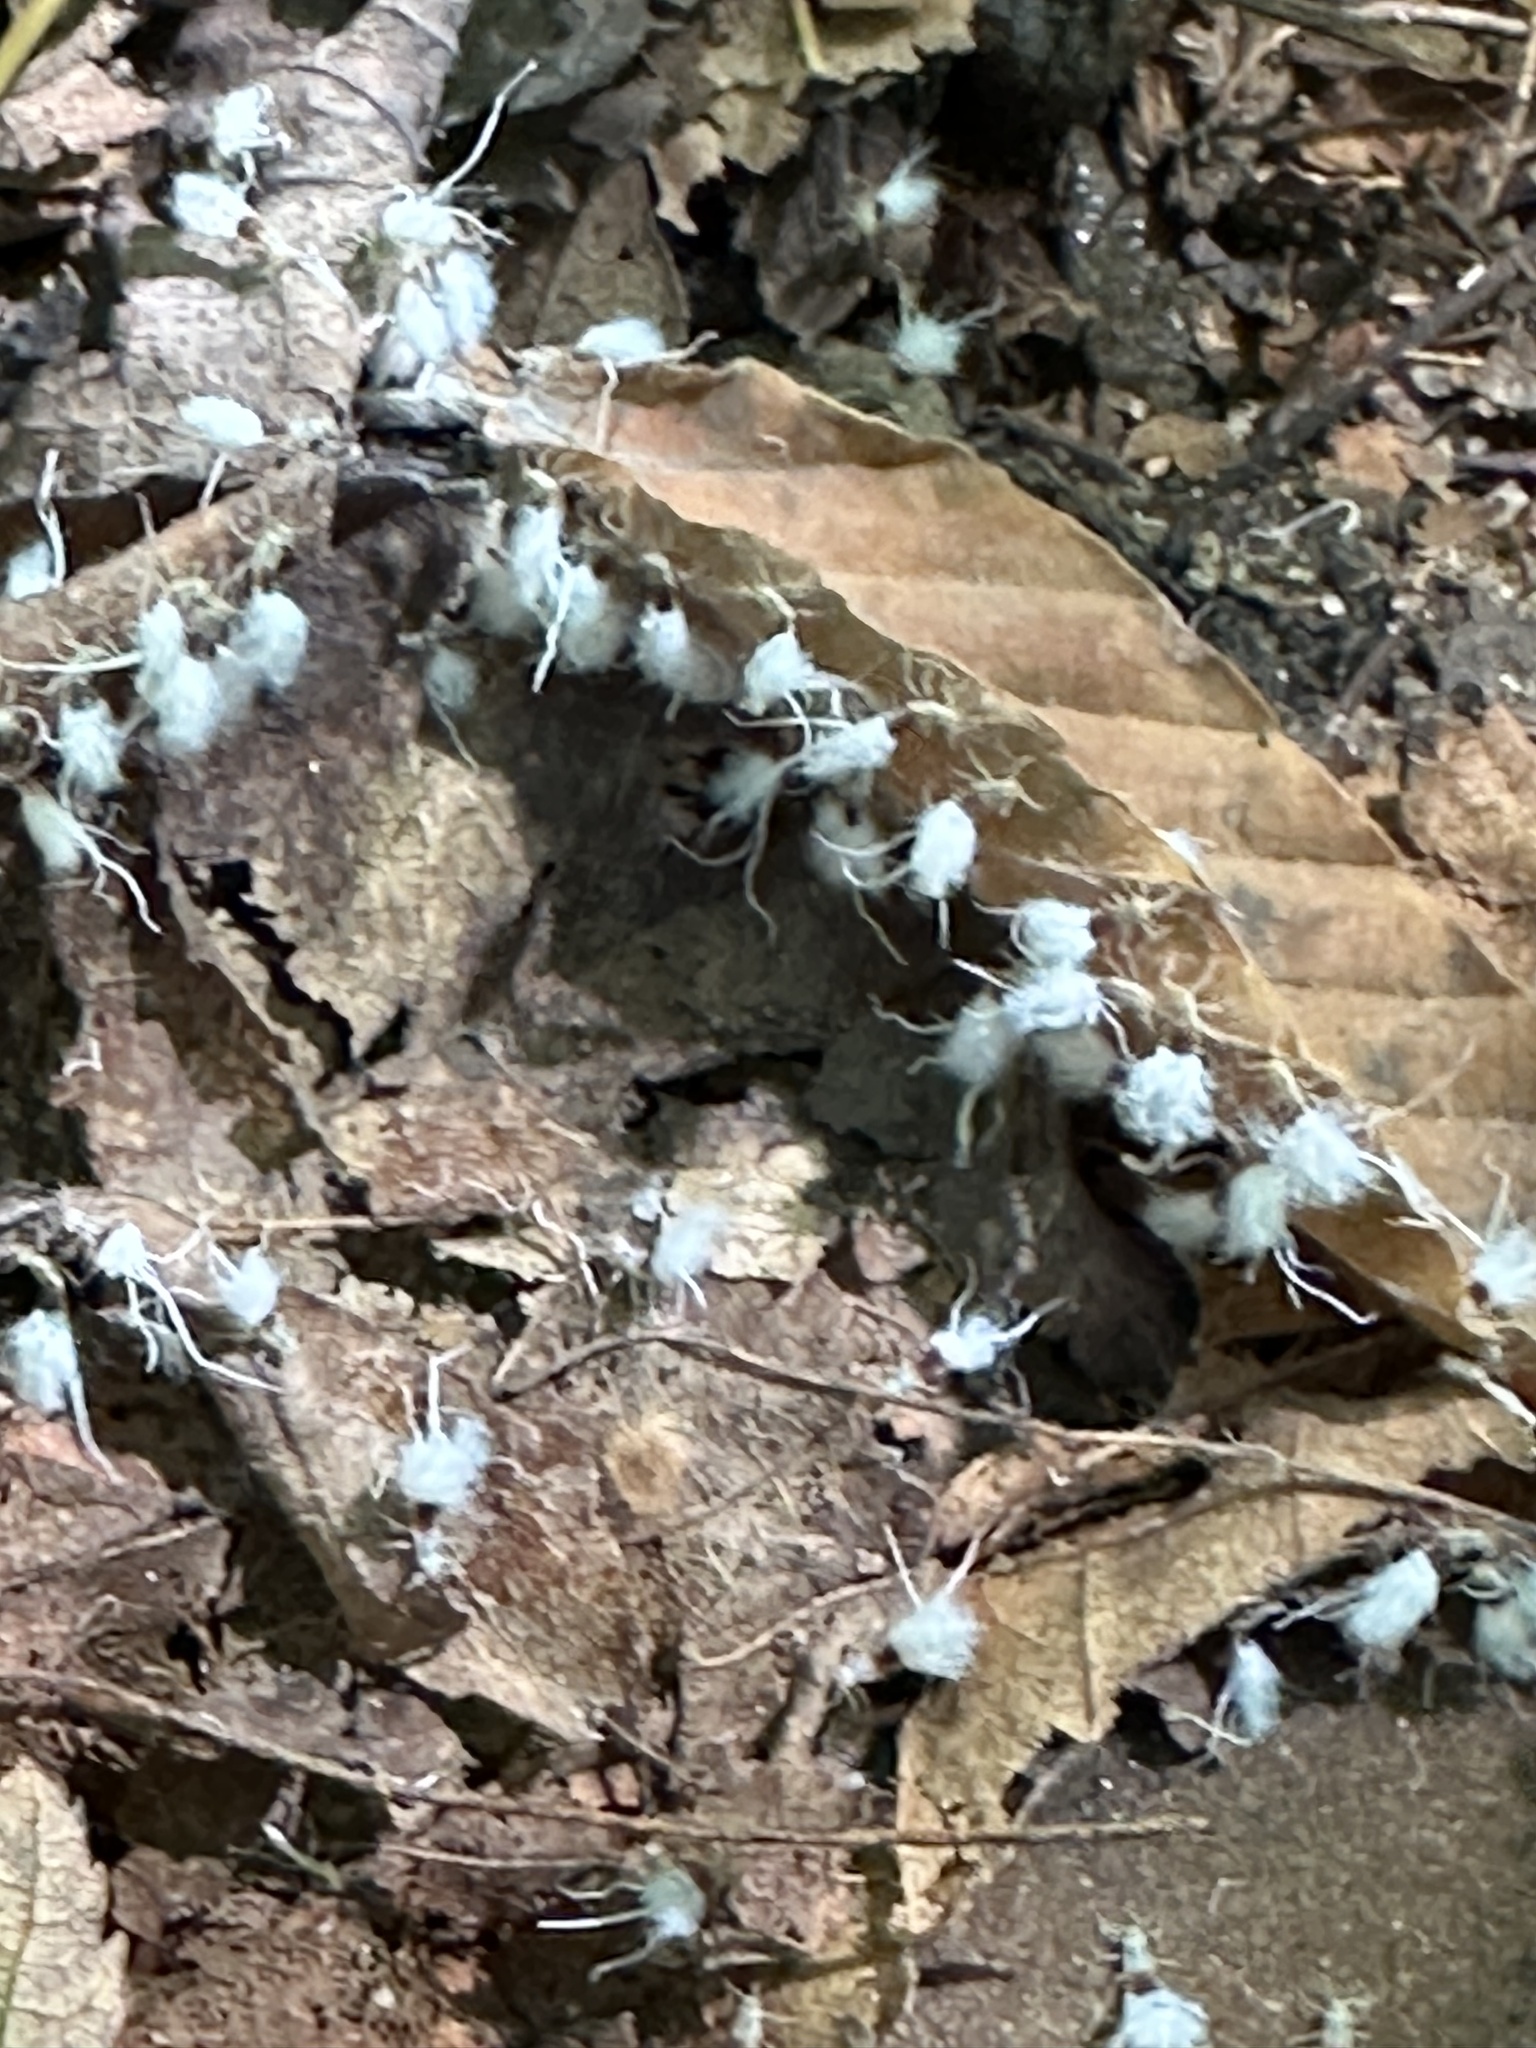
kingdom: Animalia
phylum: Arthropoda
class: Insecta
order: Hemiptera
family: Aphididae
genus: Grylloprociphilus
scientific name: Grylloprociphilus imbricator
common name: Beech blight aphid
